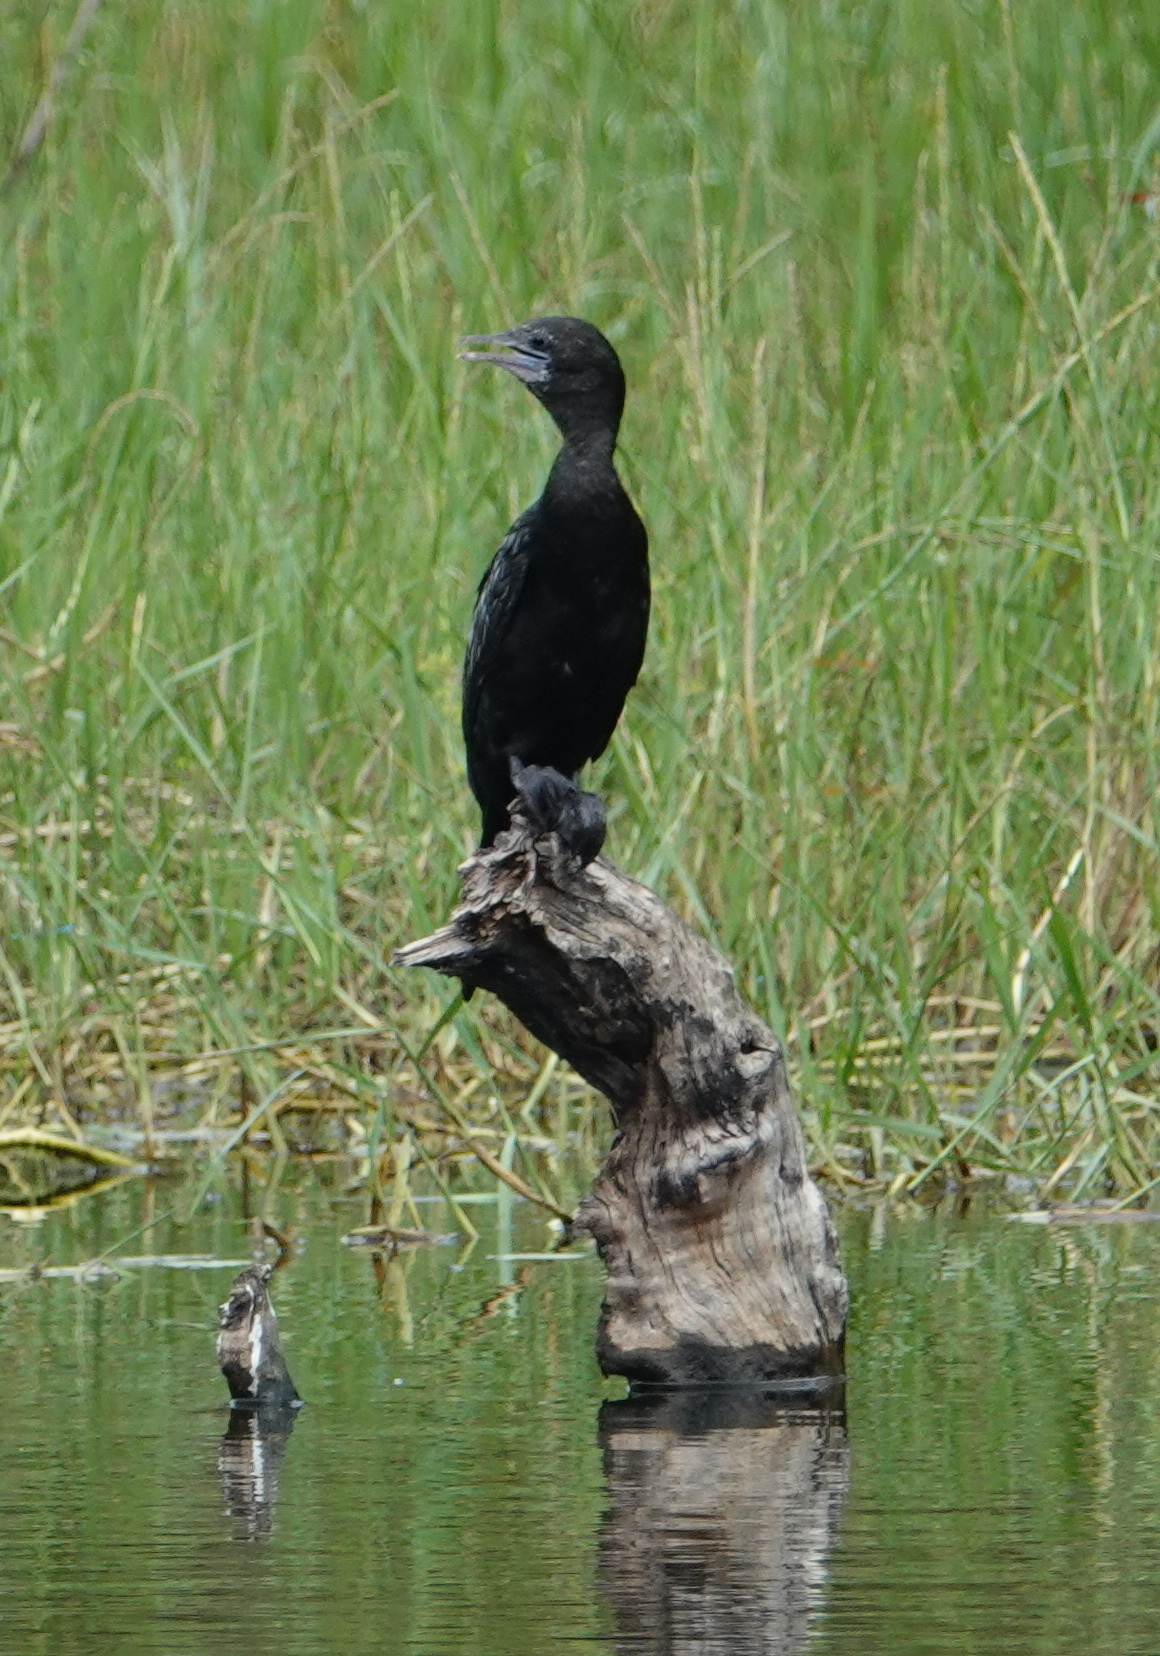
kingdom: Animalia
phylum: Chordata
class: Aves
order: Suliformes
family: Phalacrocoracidae
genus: Microcarbo
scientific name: Microcarbo niger
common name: Little cormorant
